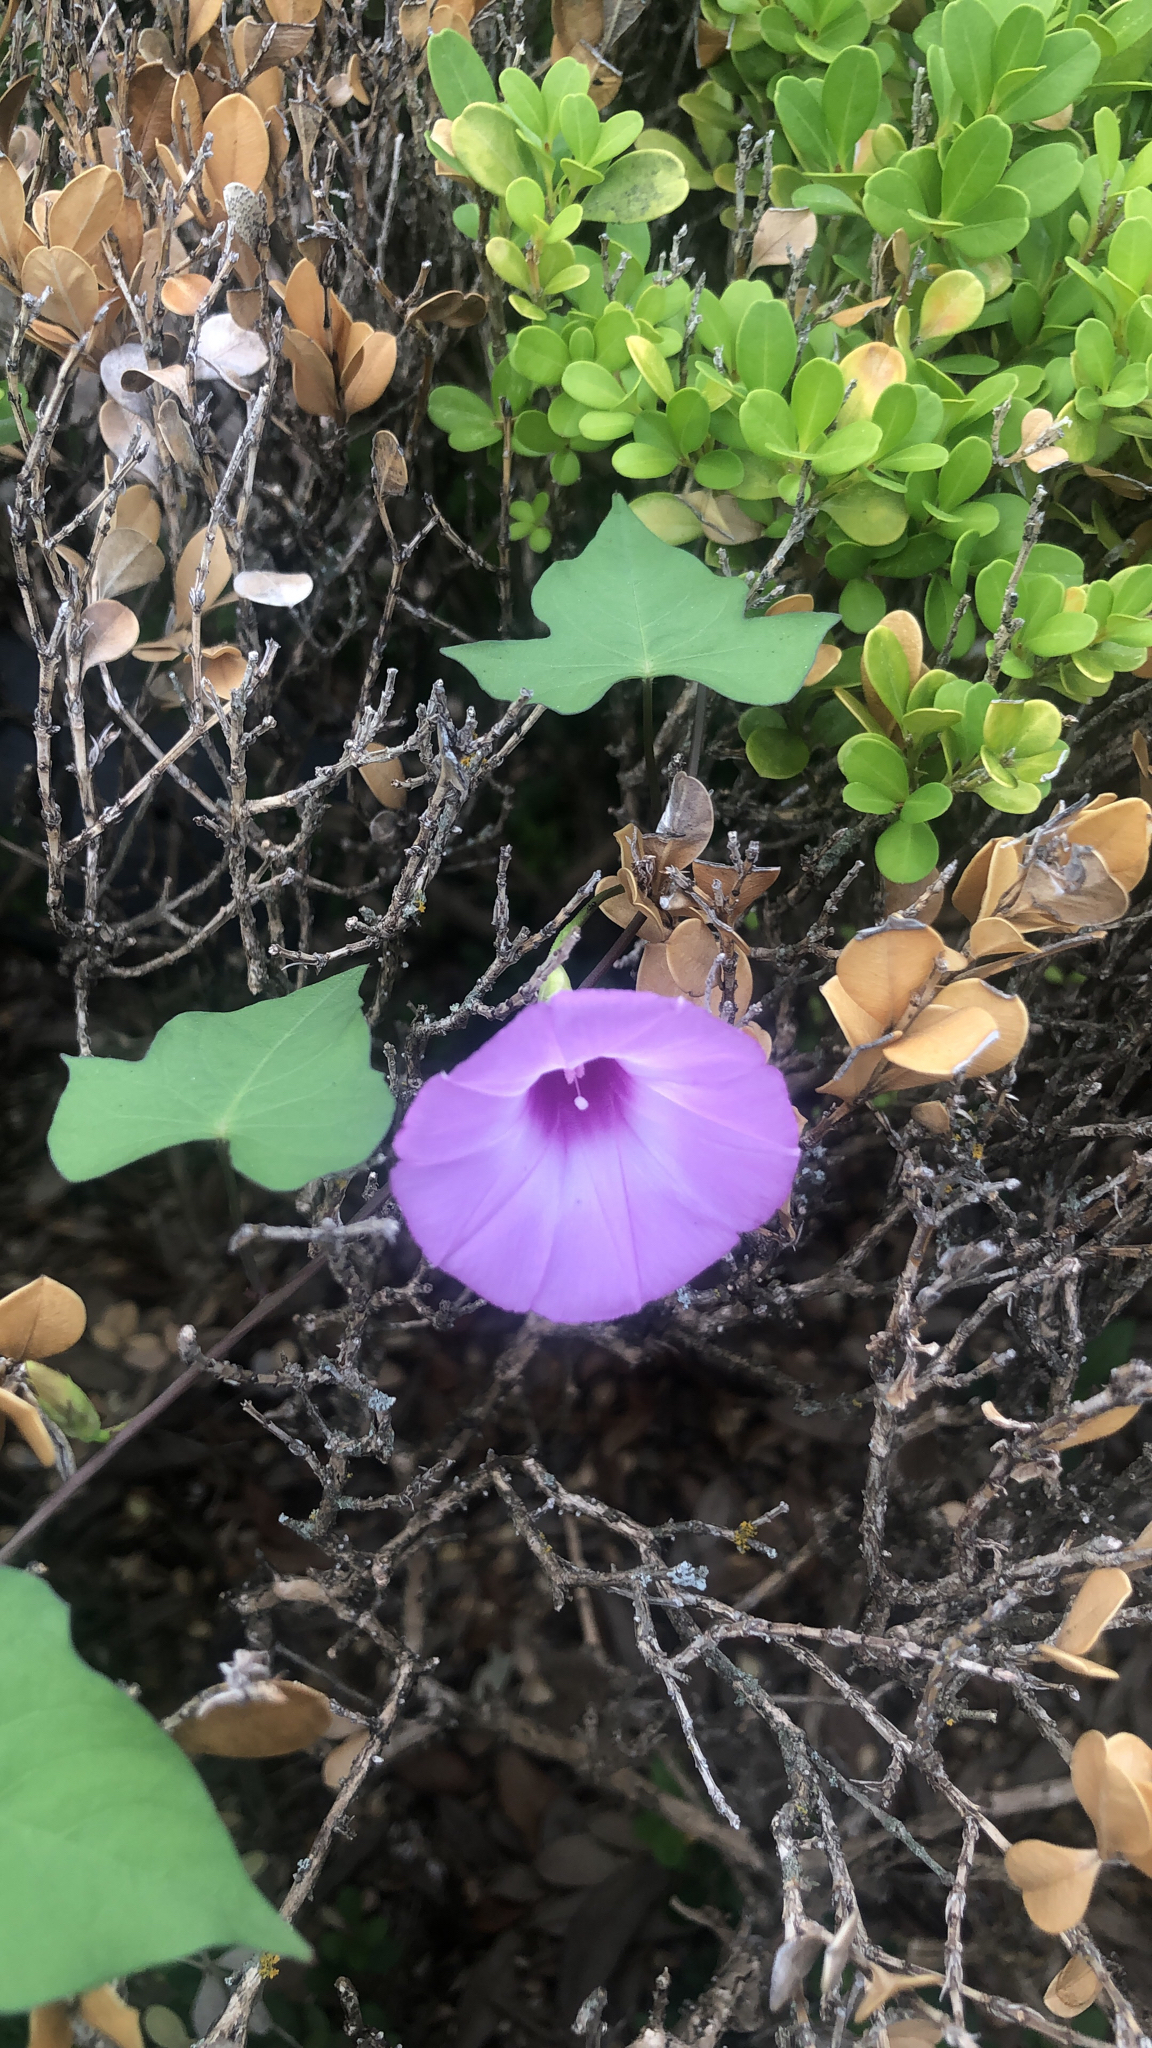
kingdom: Plantae
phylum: Tracheophyta
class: Magnoliopsida
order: Solanales
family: Convolvulaceae
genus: Ipomoea
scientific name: Ipomoea cordatotriloba
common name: Cotton morning glory
